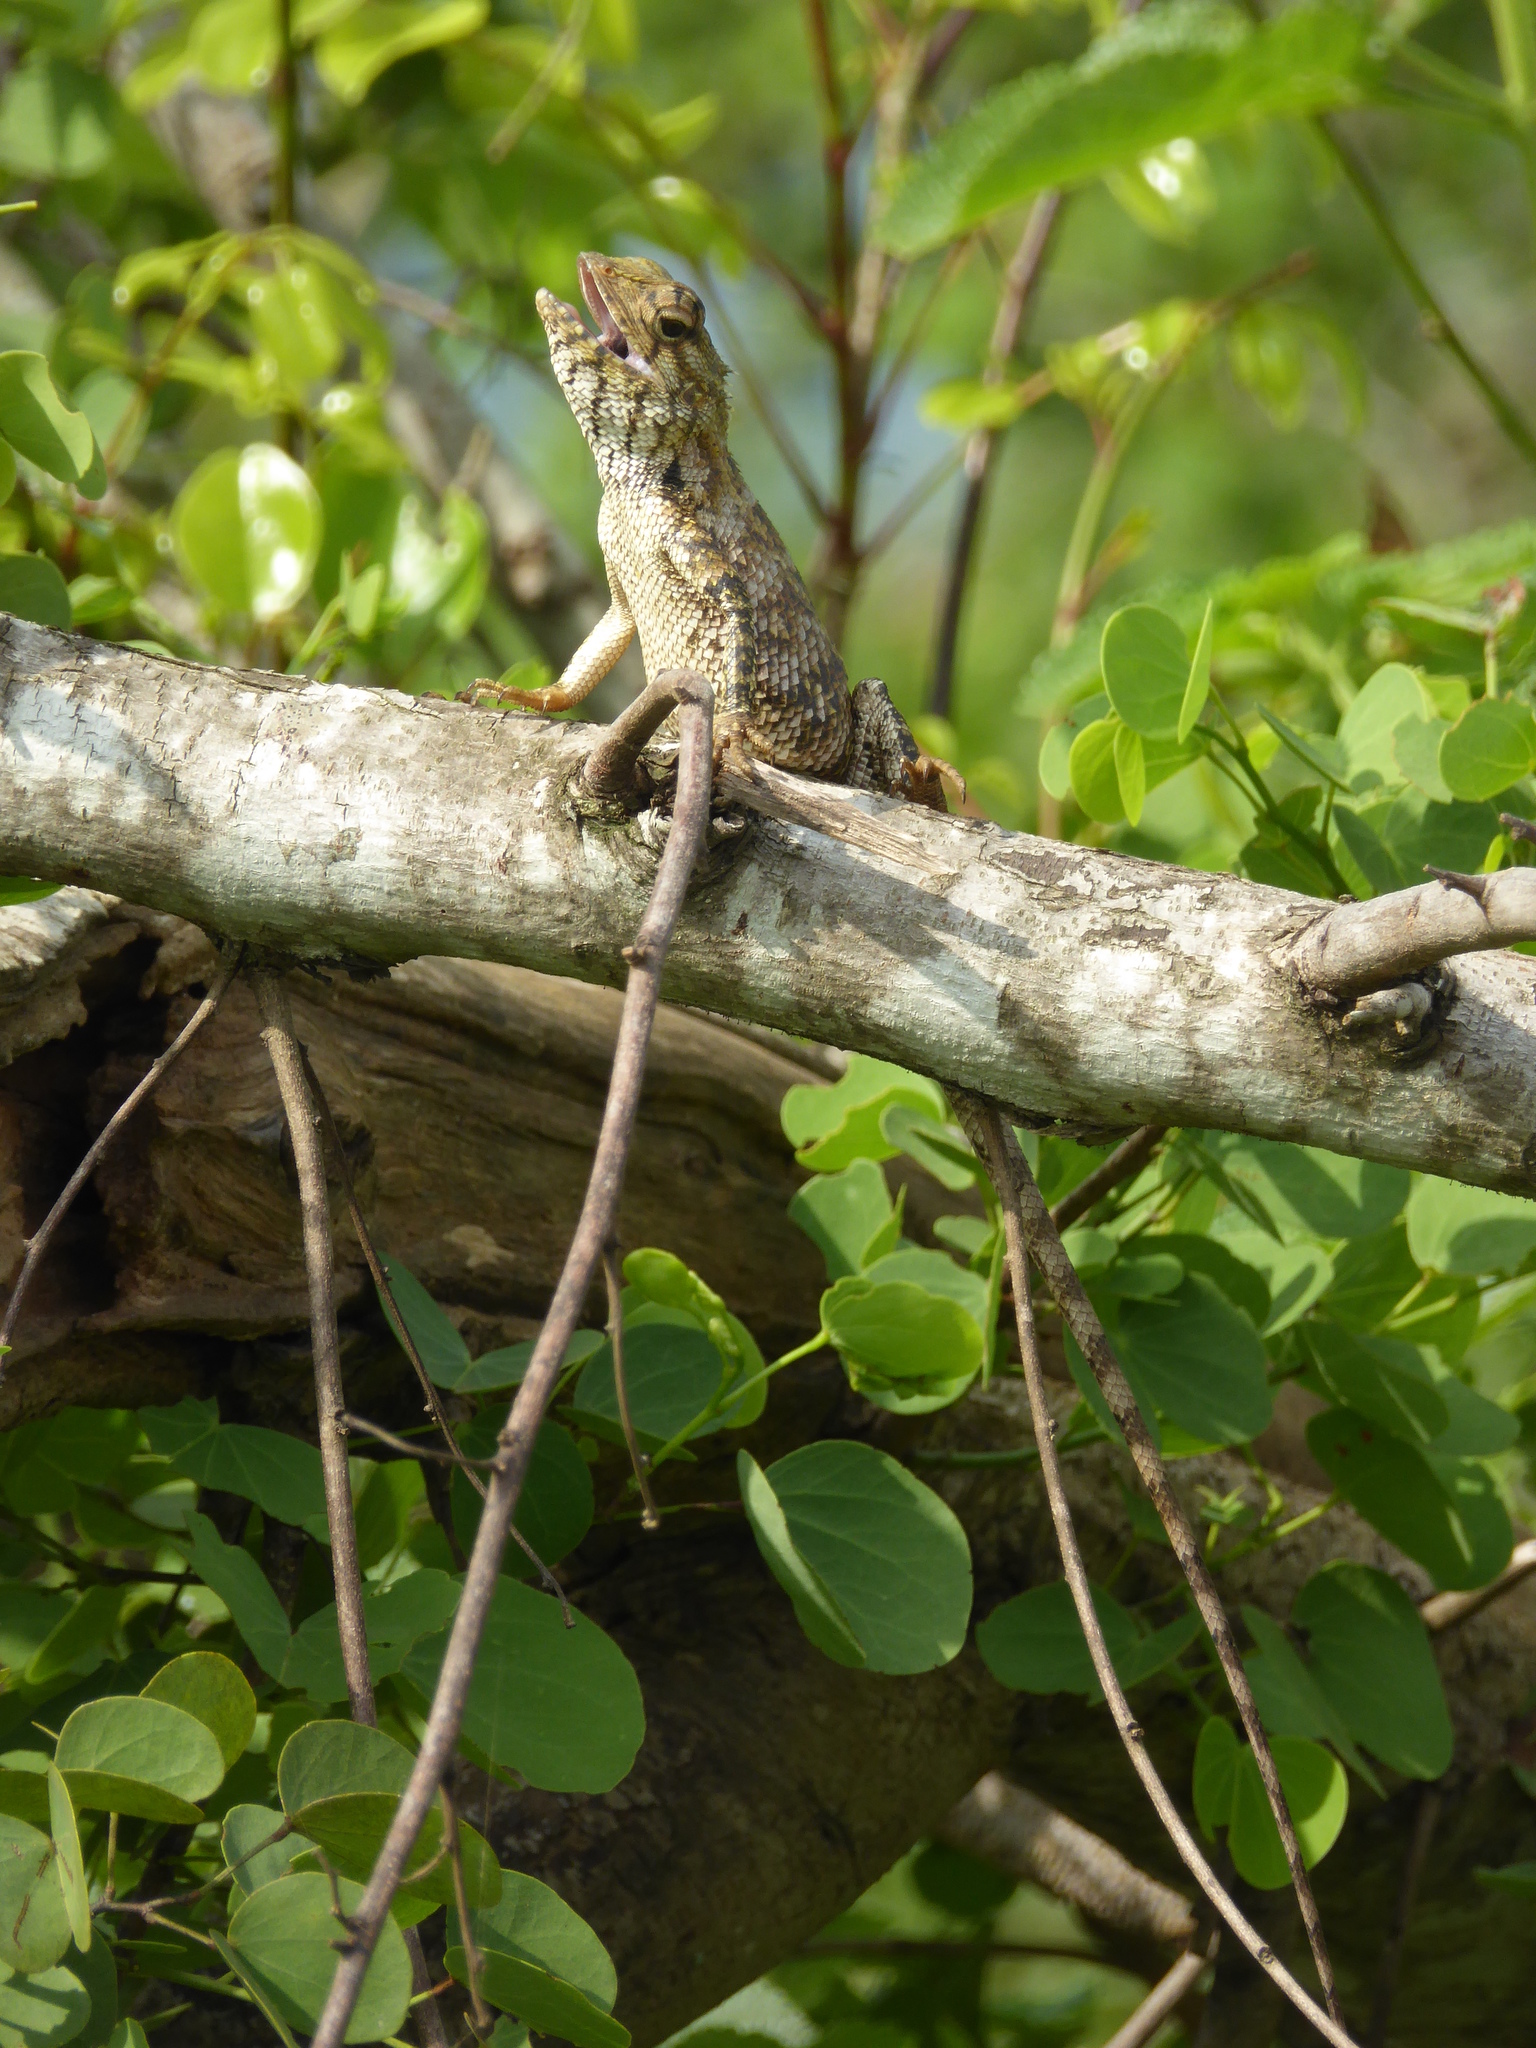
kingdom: Animalia
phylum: Chordata
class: Squamata
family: Agamidae
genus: Calotes
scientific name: Calotes versicolor
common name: Oriental garden lizard
